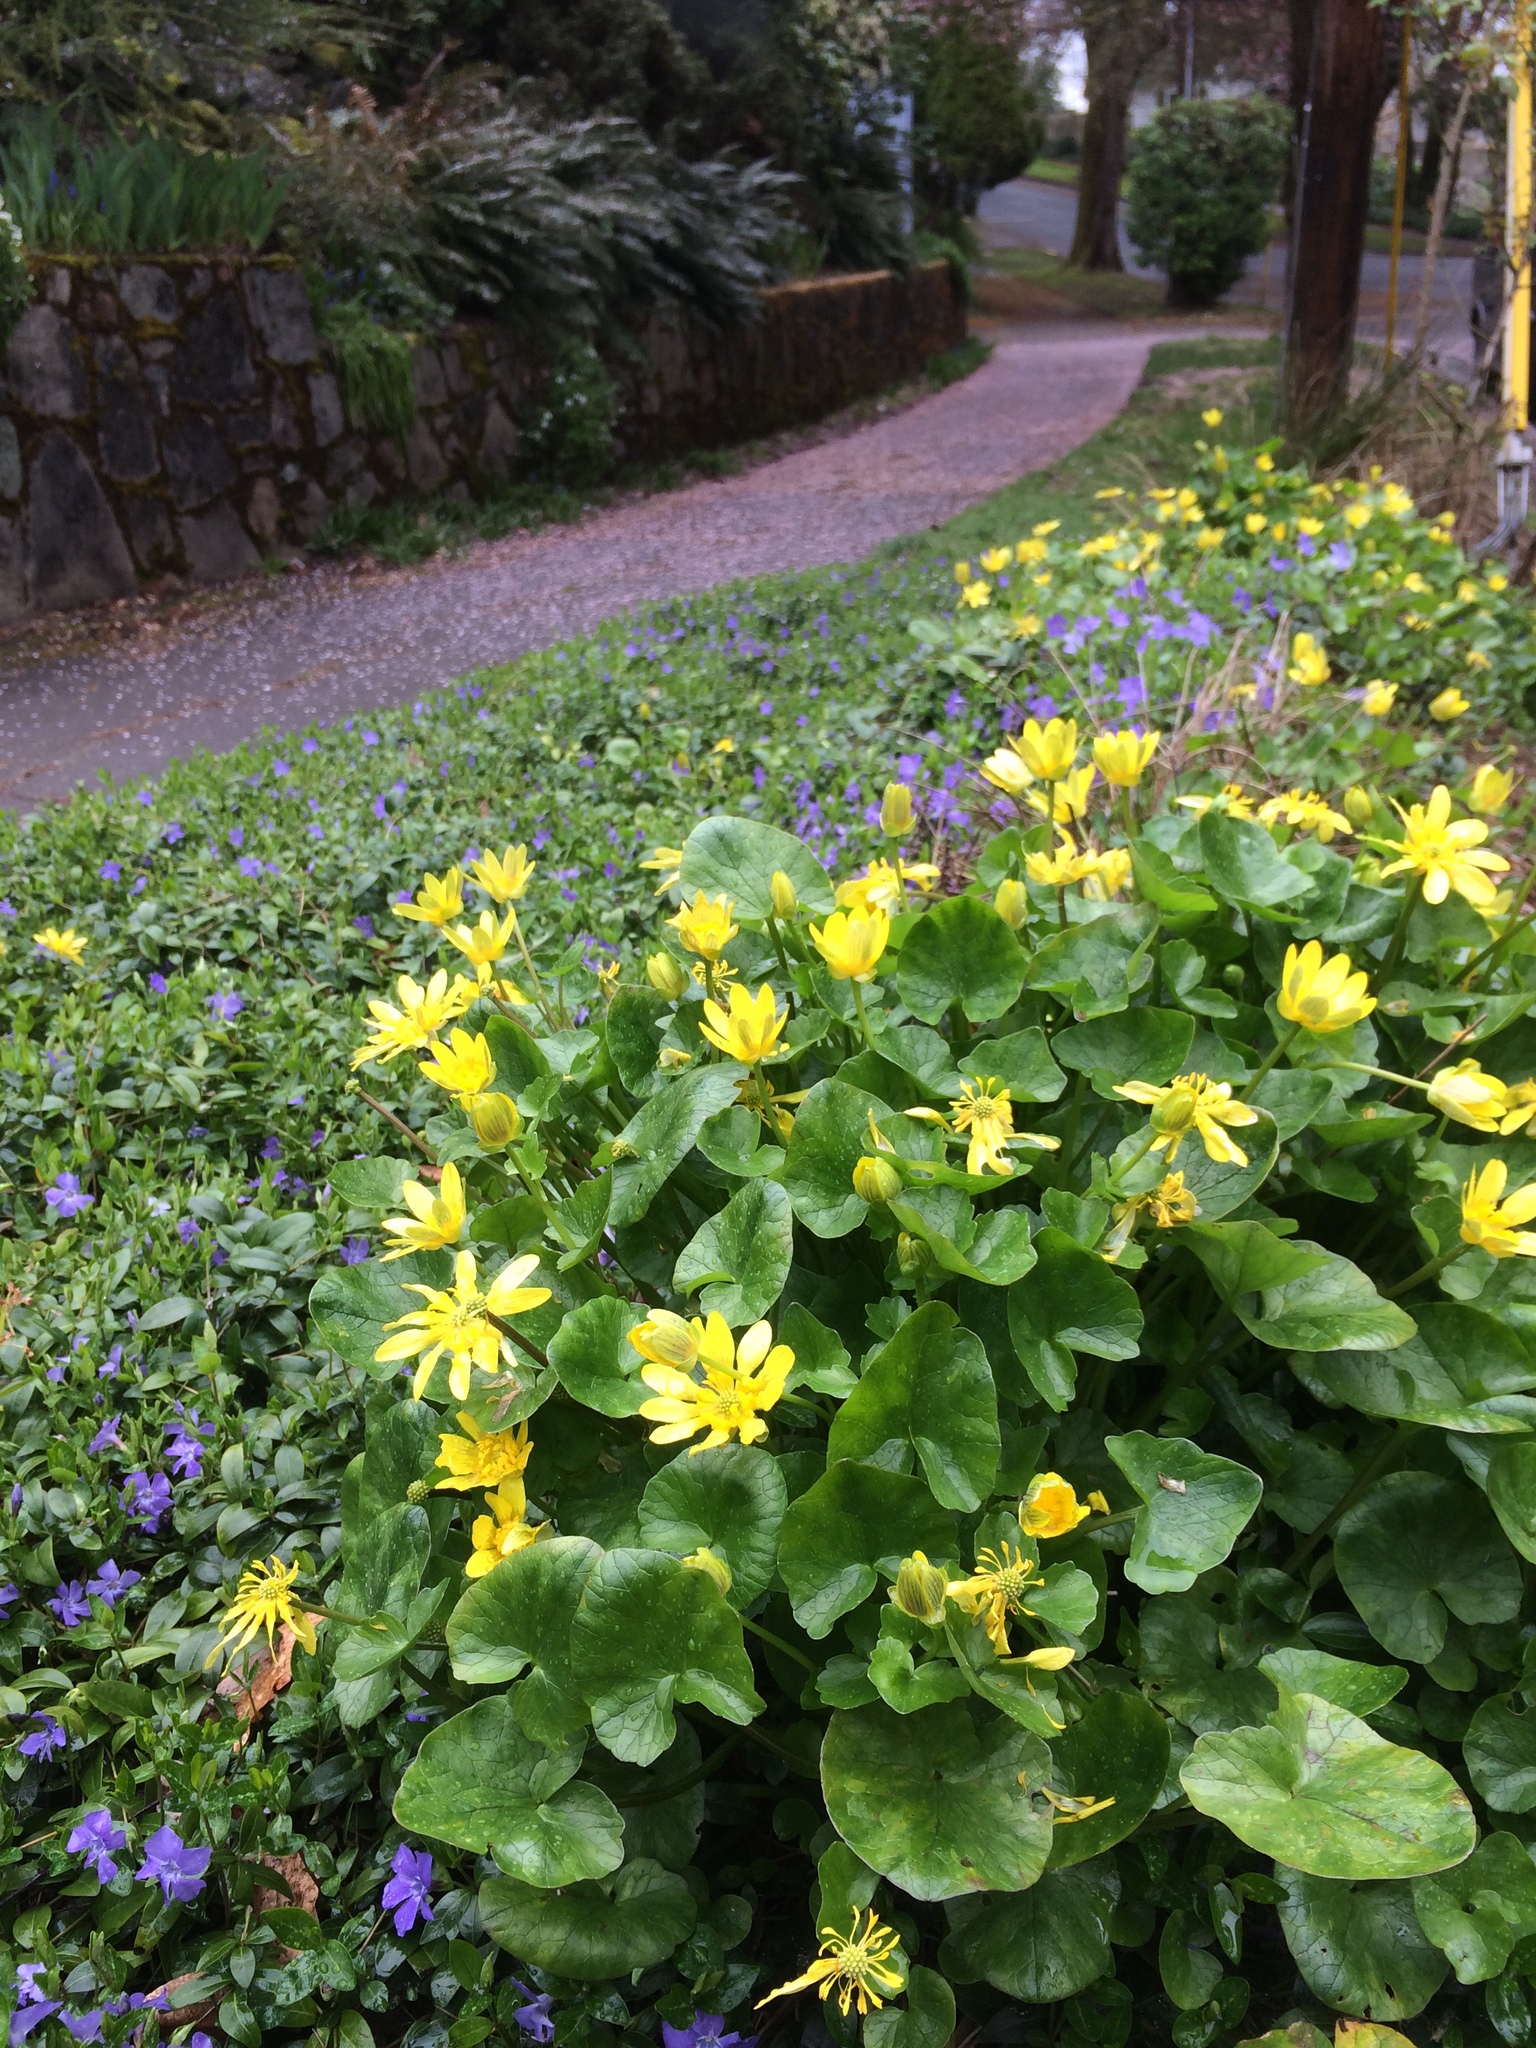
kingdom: Plantae
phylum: Tracheophyta
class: Magnoliopsida
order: Ranunculales
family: Ranunculaceae
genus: Ficaria
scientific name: Ficaria verna
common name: Lesser celandine
